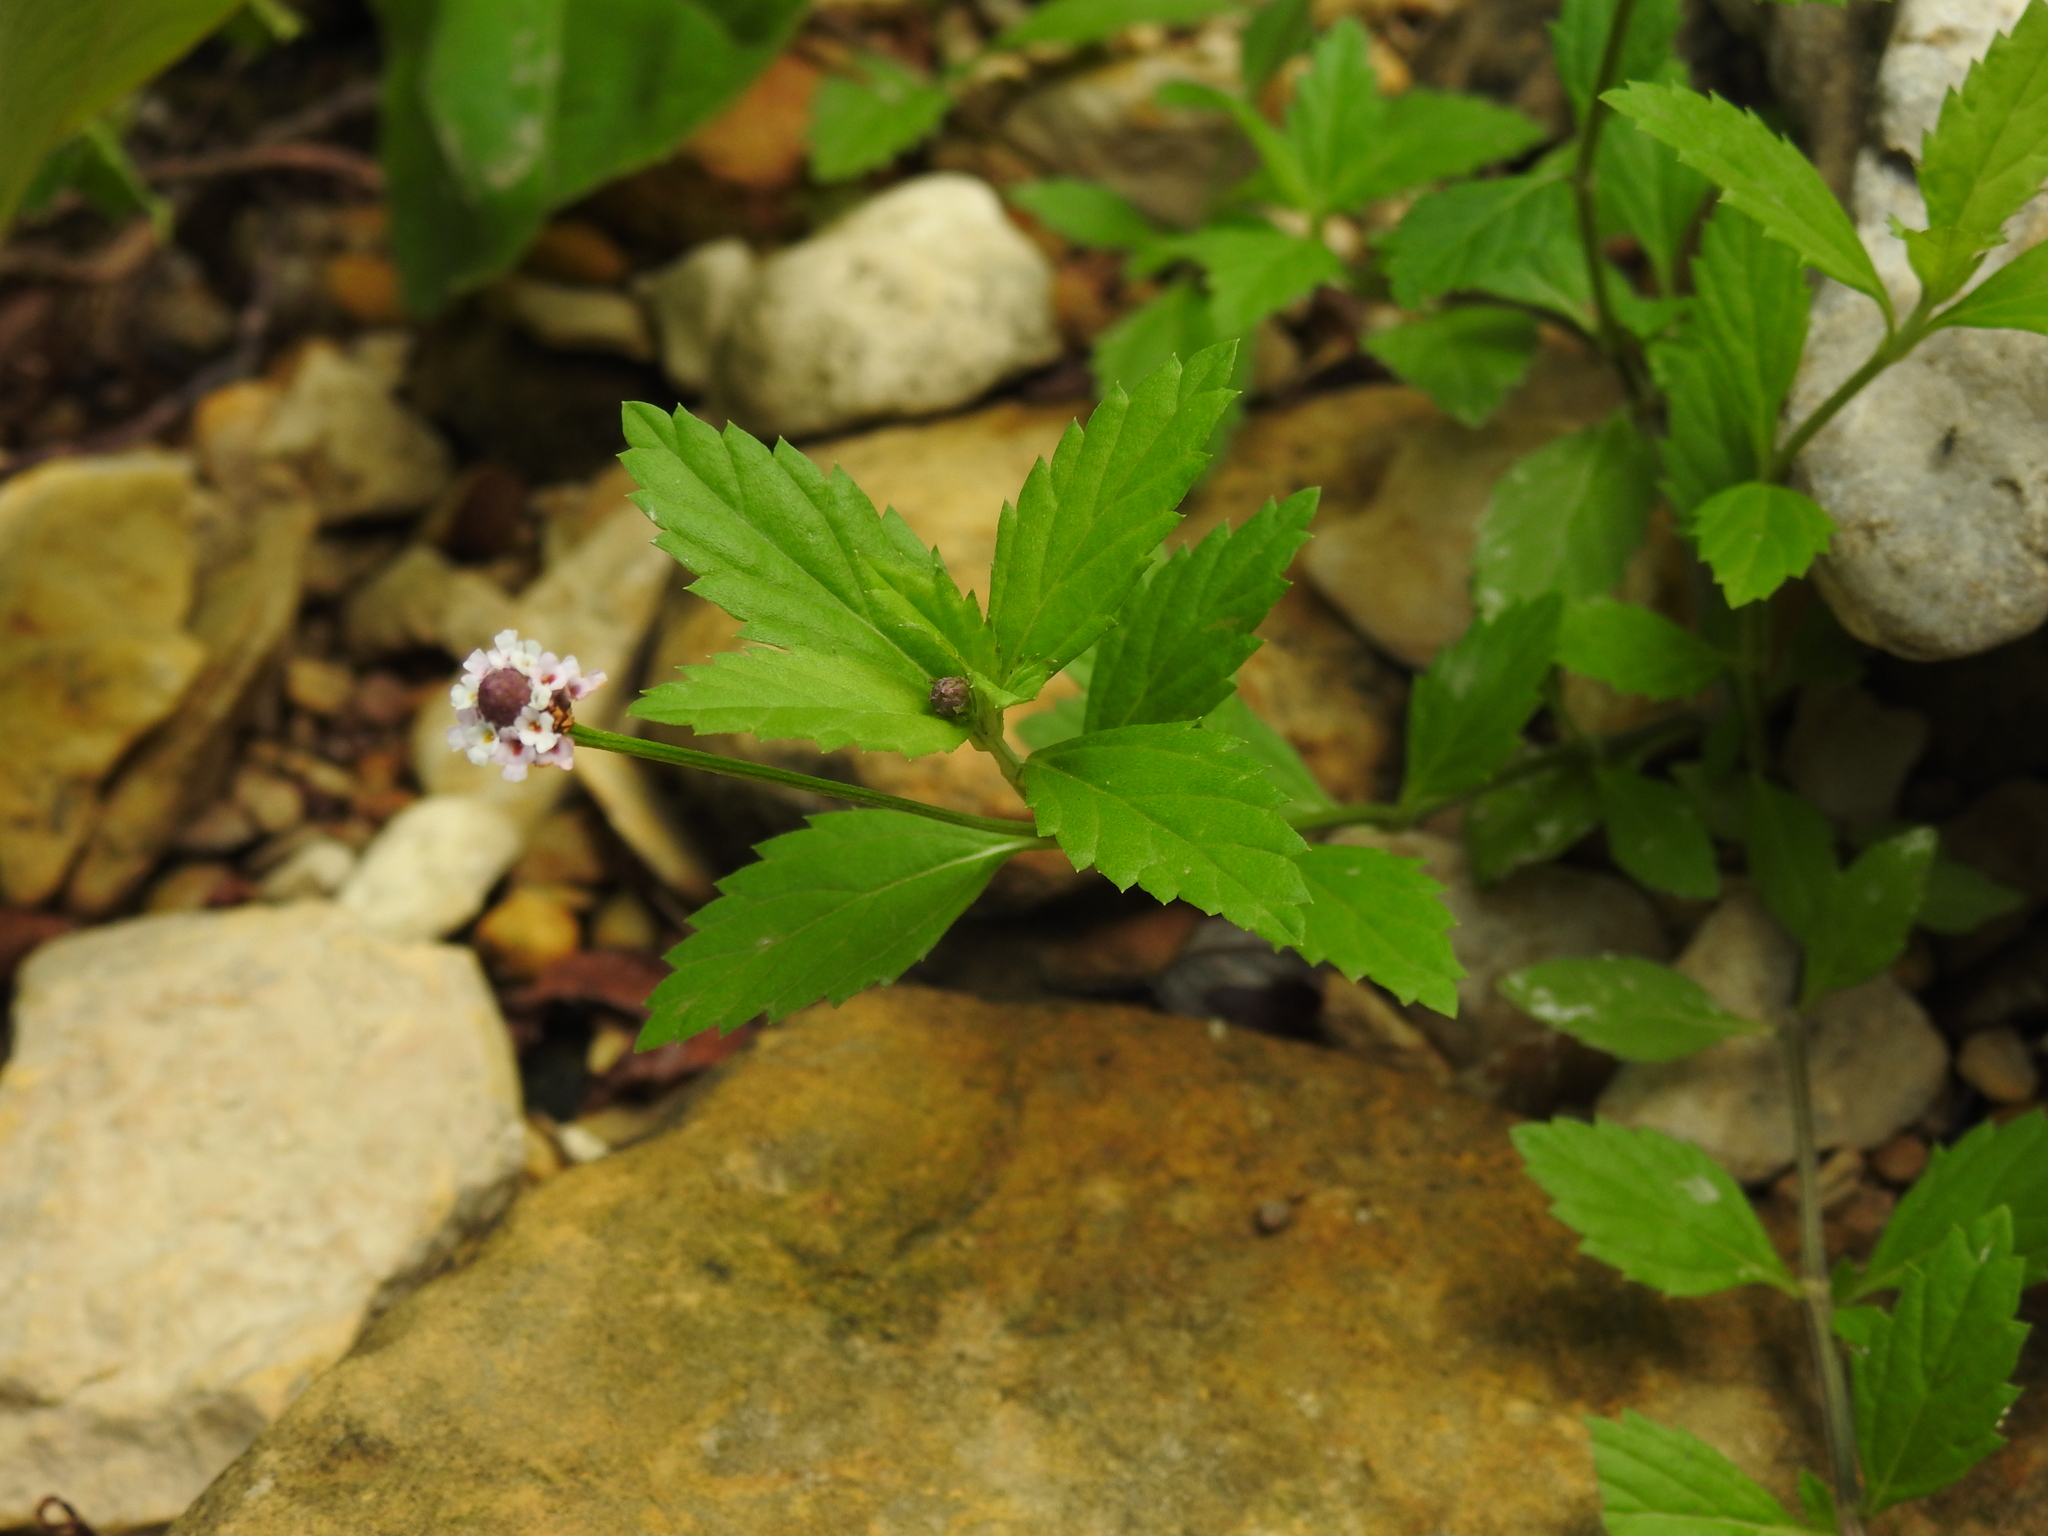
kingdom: Plantae
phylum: Tracheophyta
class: Magnoliopsida
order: Lamiales
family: Verbenaceae
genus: Phyla
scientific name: Phyla lanceolata
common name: Northern fogfruit
